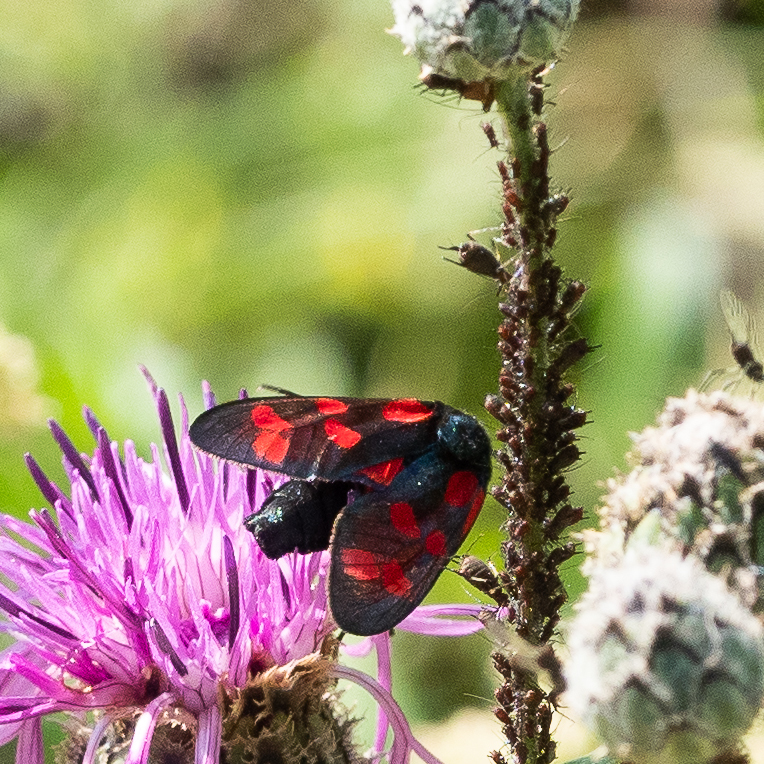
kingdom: Animalia
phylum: Arthropoda
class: Insecta
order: Lepidoptera
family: Zygaenidae
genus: Zygaena
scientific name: Zygaena filipendulae
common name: Six-spot burnet
